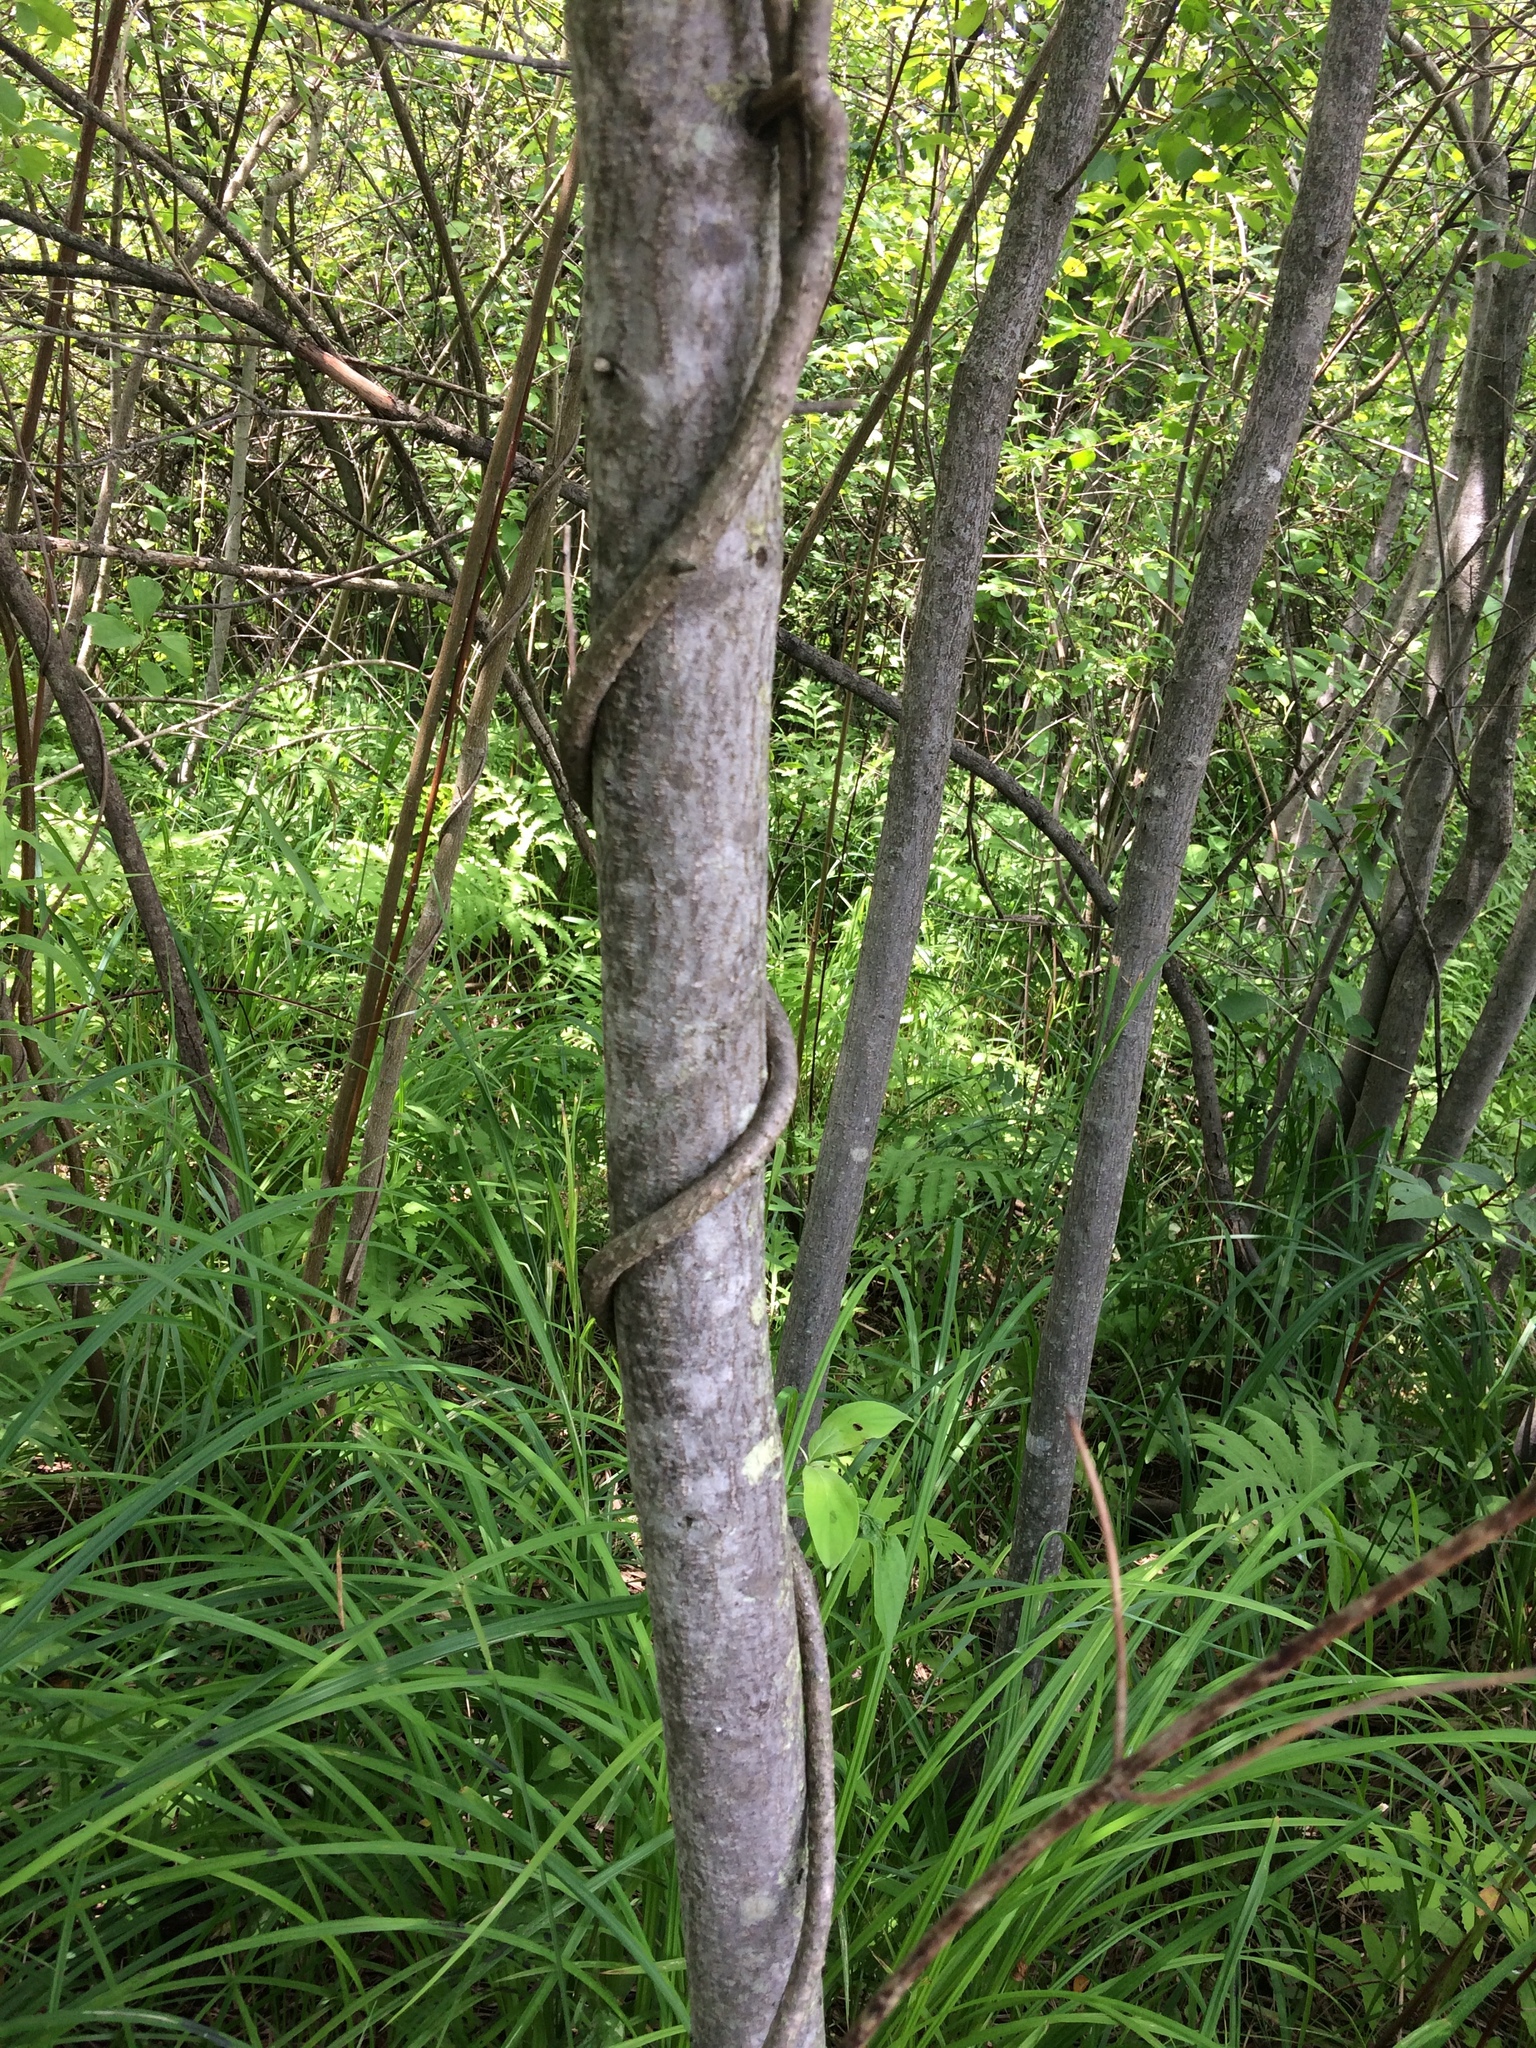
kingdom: Plantae
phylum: Tracheophyta
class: Magnoliopsida
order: Celastrales
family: Celastraceae
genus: Celastrus
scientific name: Celastrus orbiculatus
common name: Oriental bittersweet
